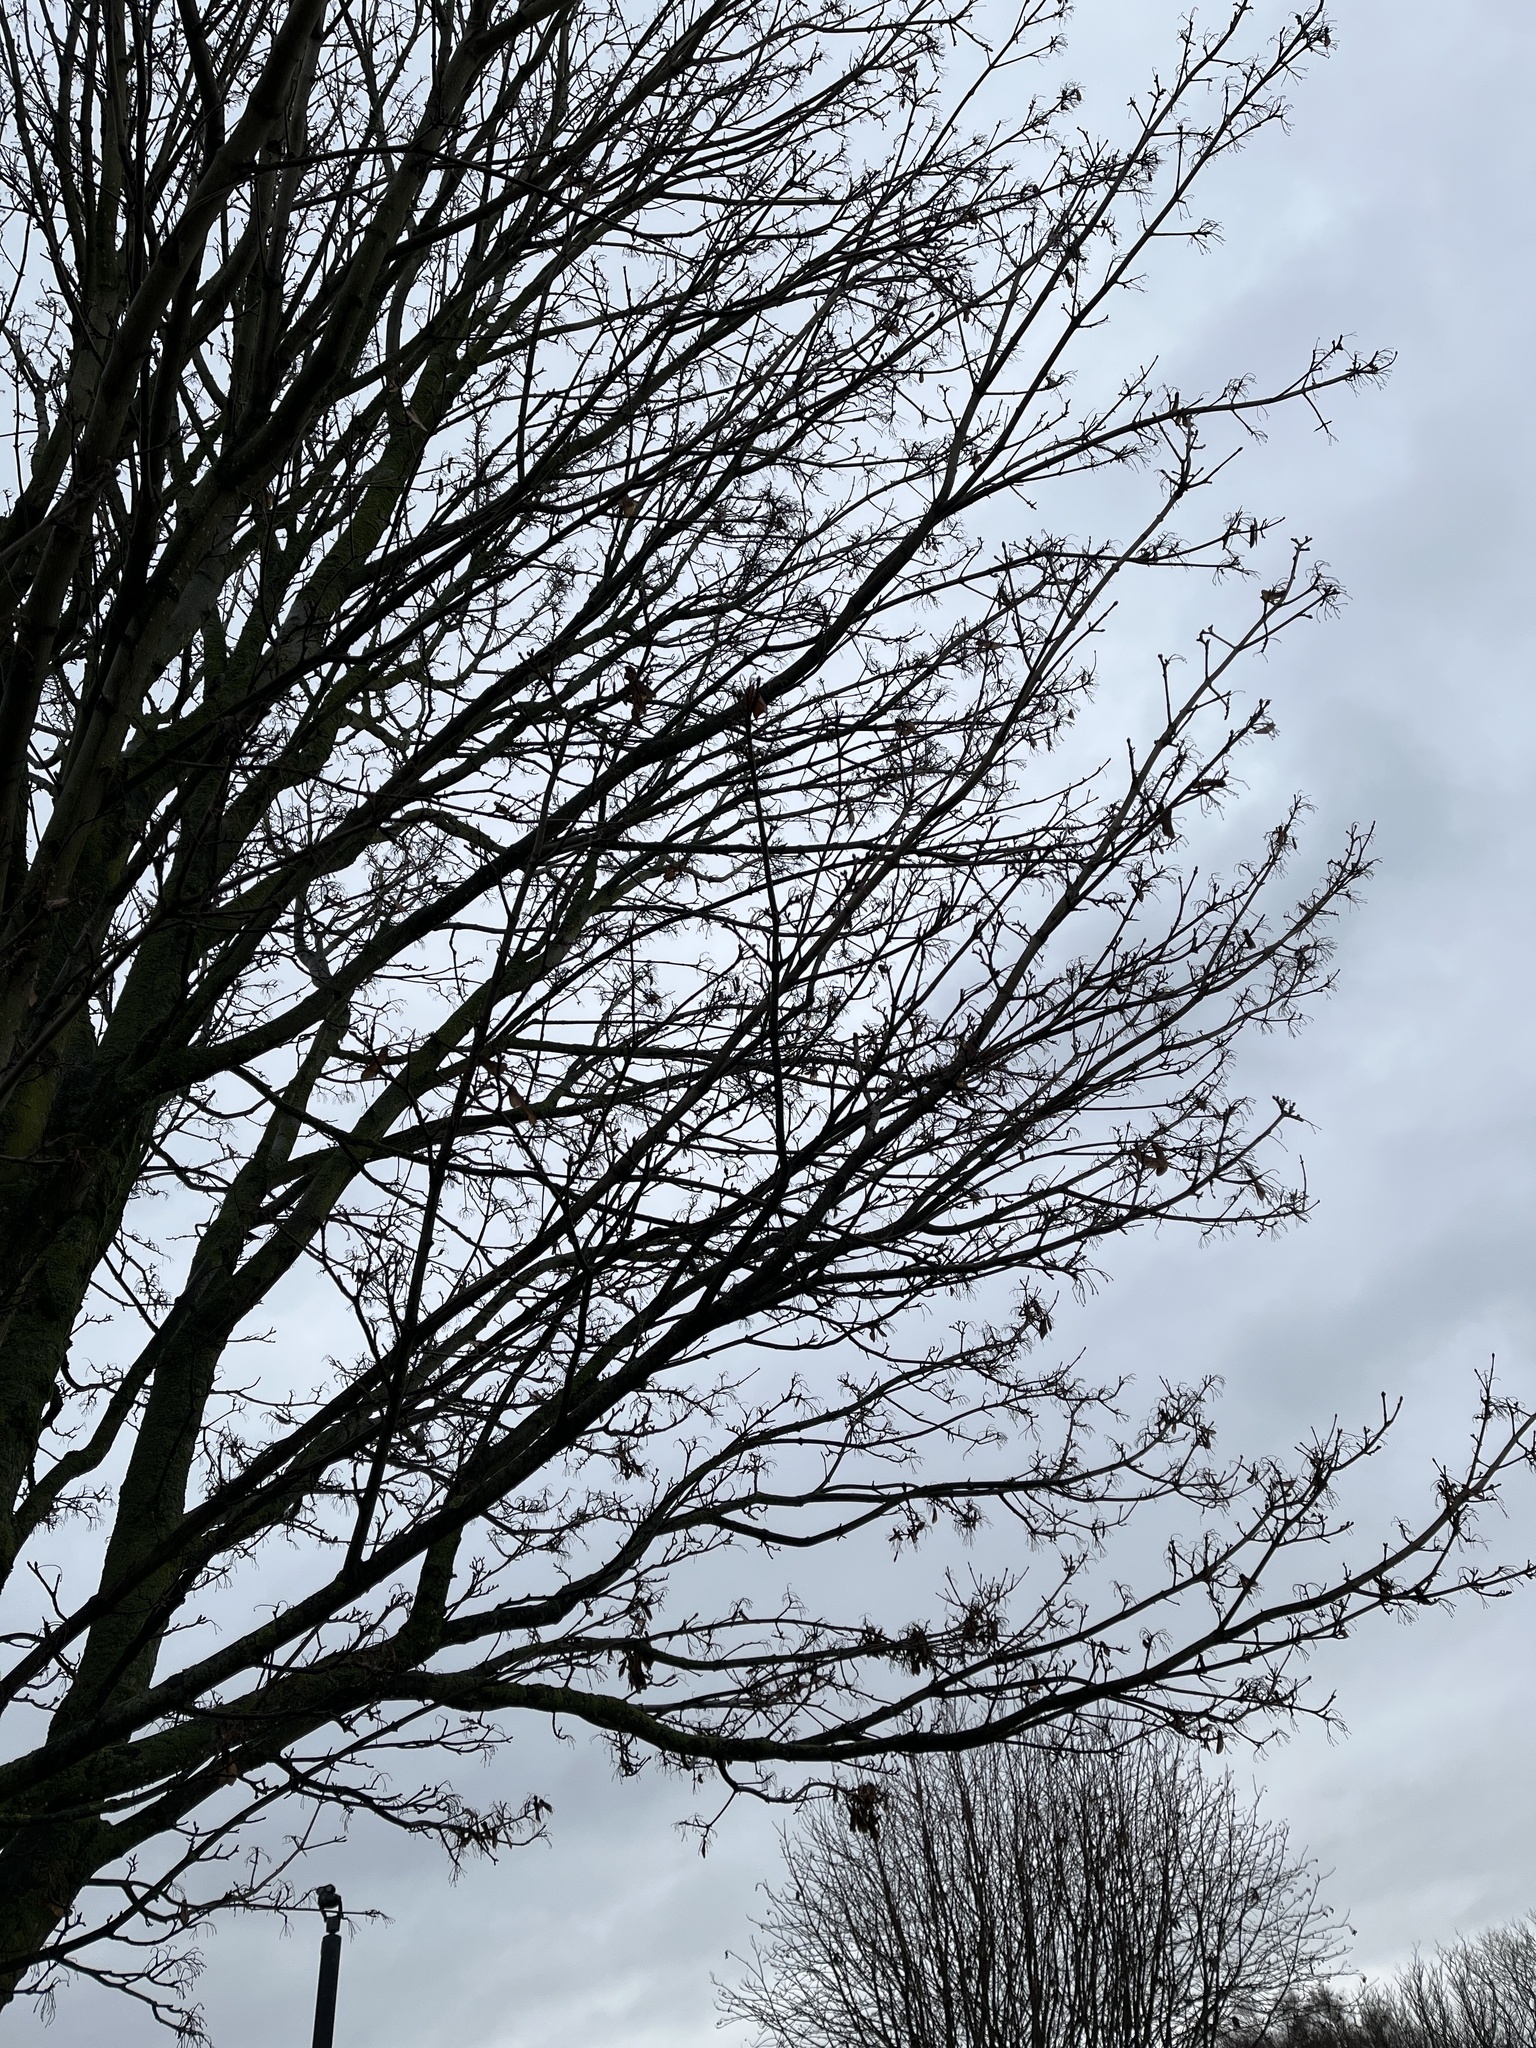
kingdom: Plantae
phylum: Tracheophyta
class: Magnoliopsida
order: Sapindales
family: Sapindaceae
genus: Acer
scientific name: Acer pseudoplatanus
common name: Sycamore
